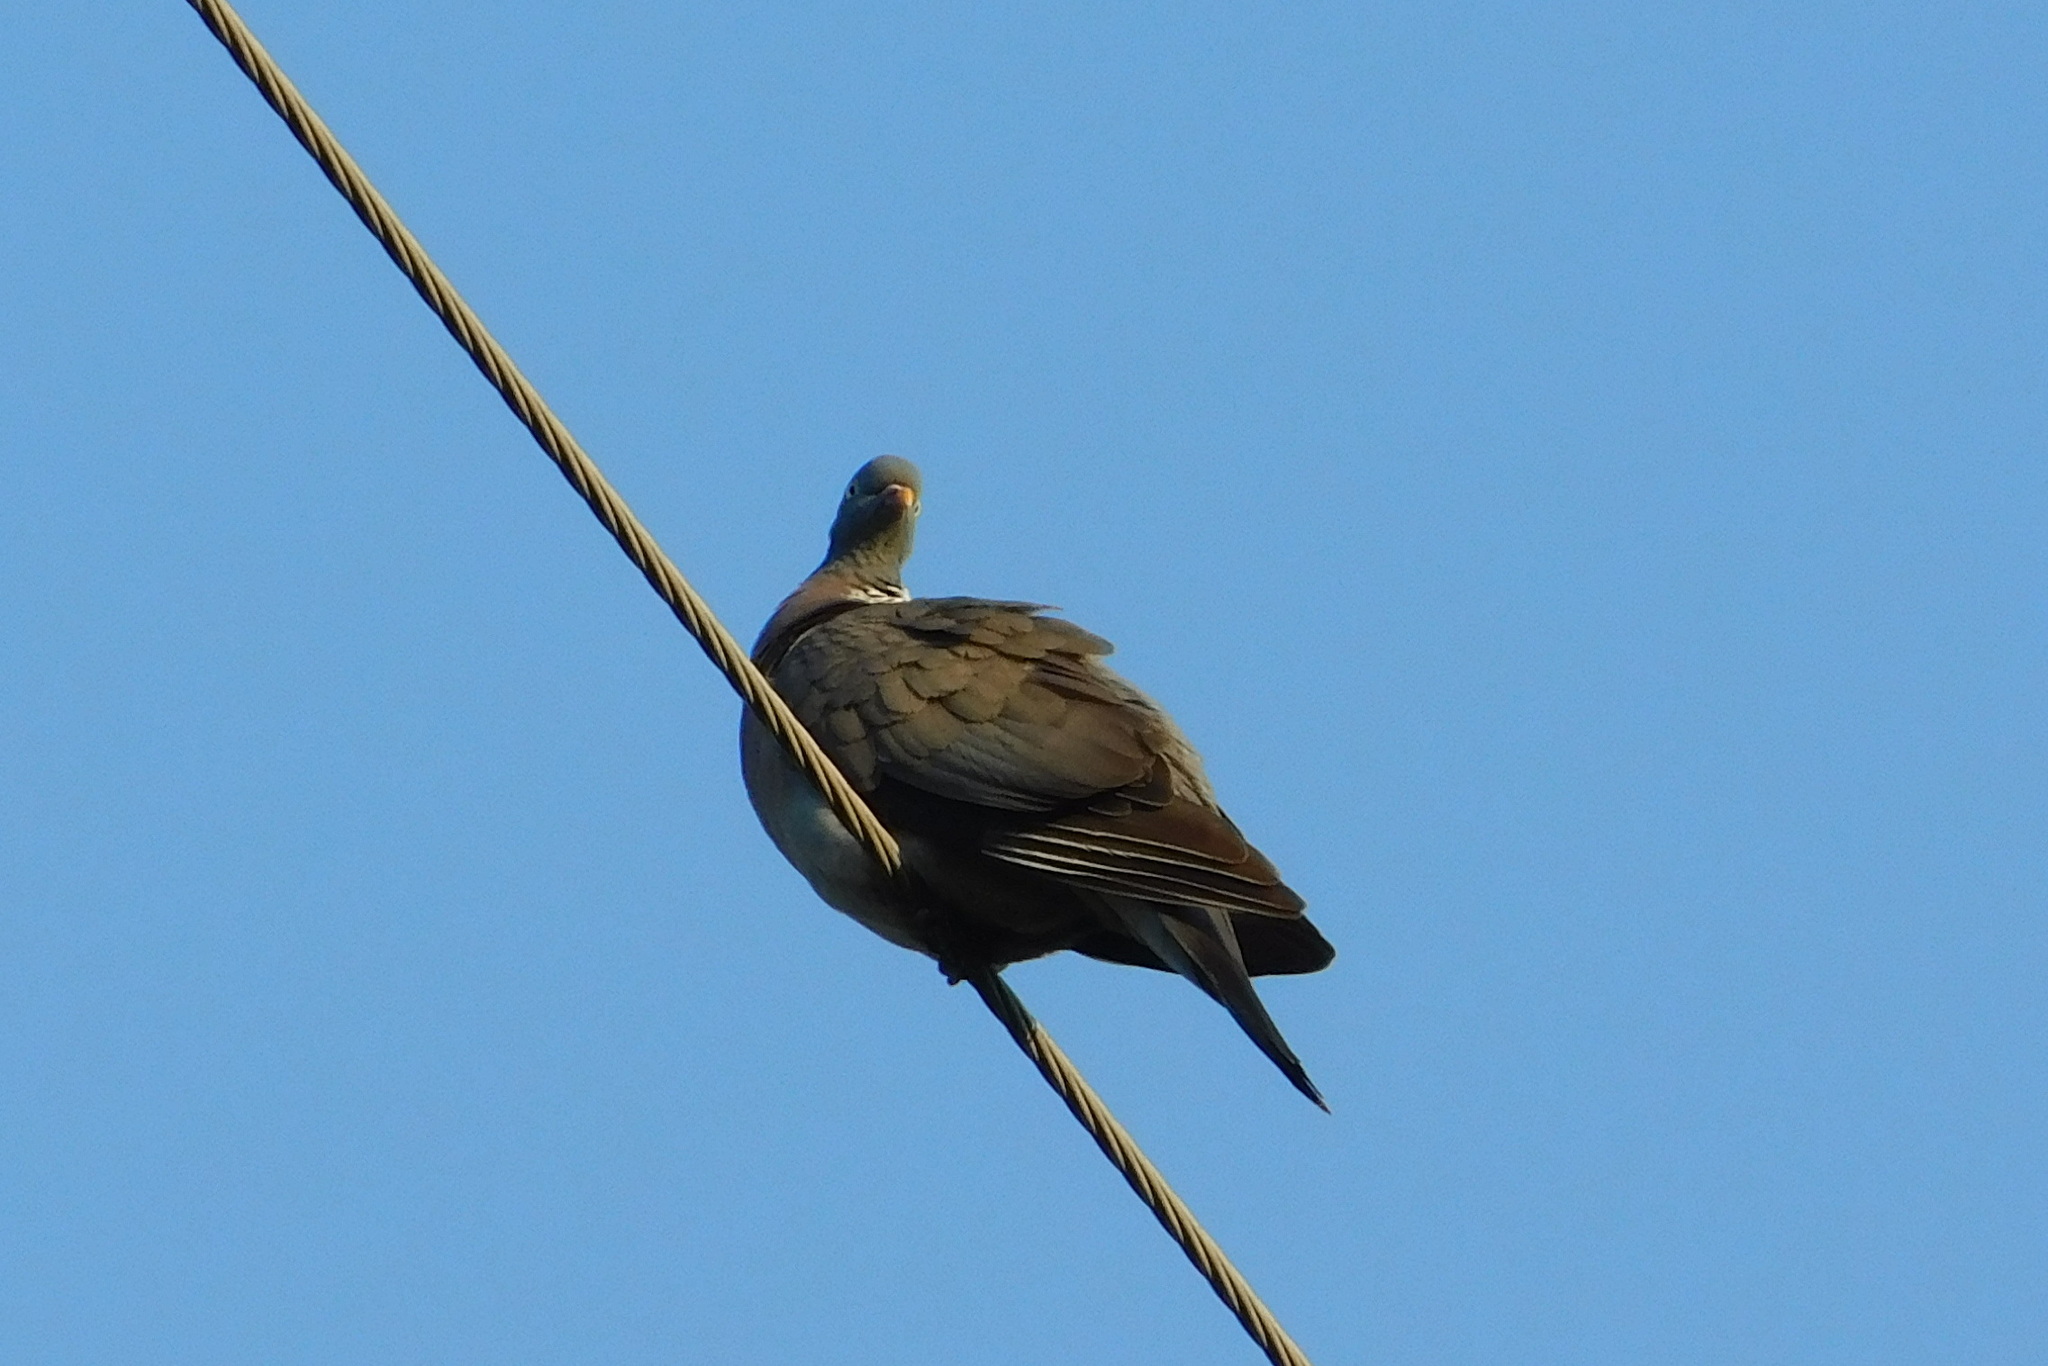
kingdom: Animalia
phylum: Chordata
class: Aves
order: Columbiformes
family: Columbidae
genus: Columba
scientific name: Columba palumbus
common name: Common wood pigeon
